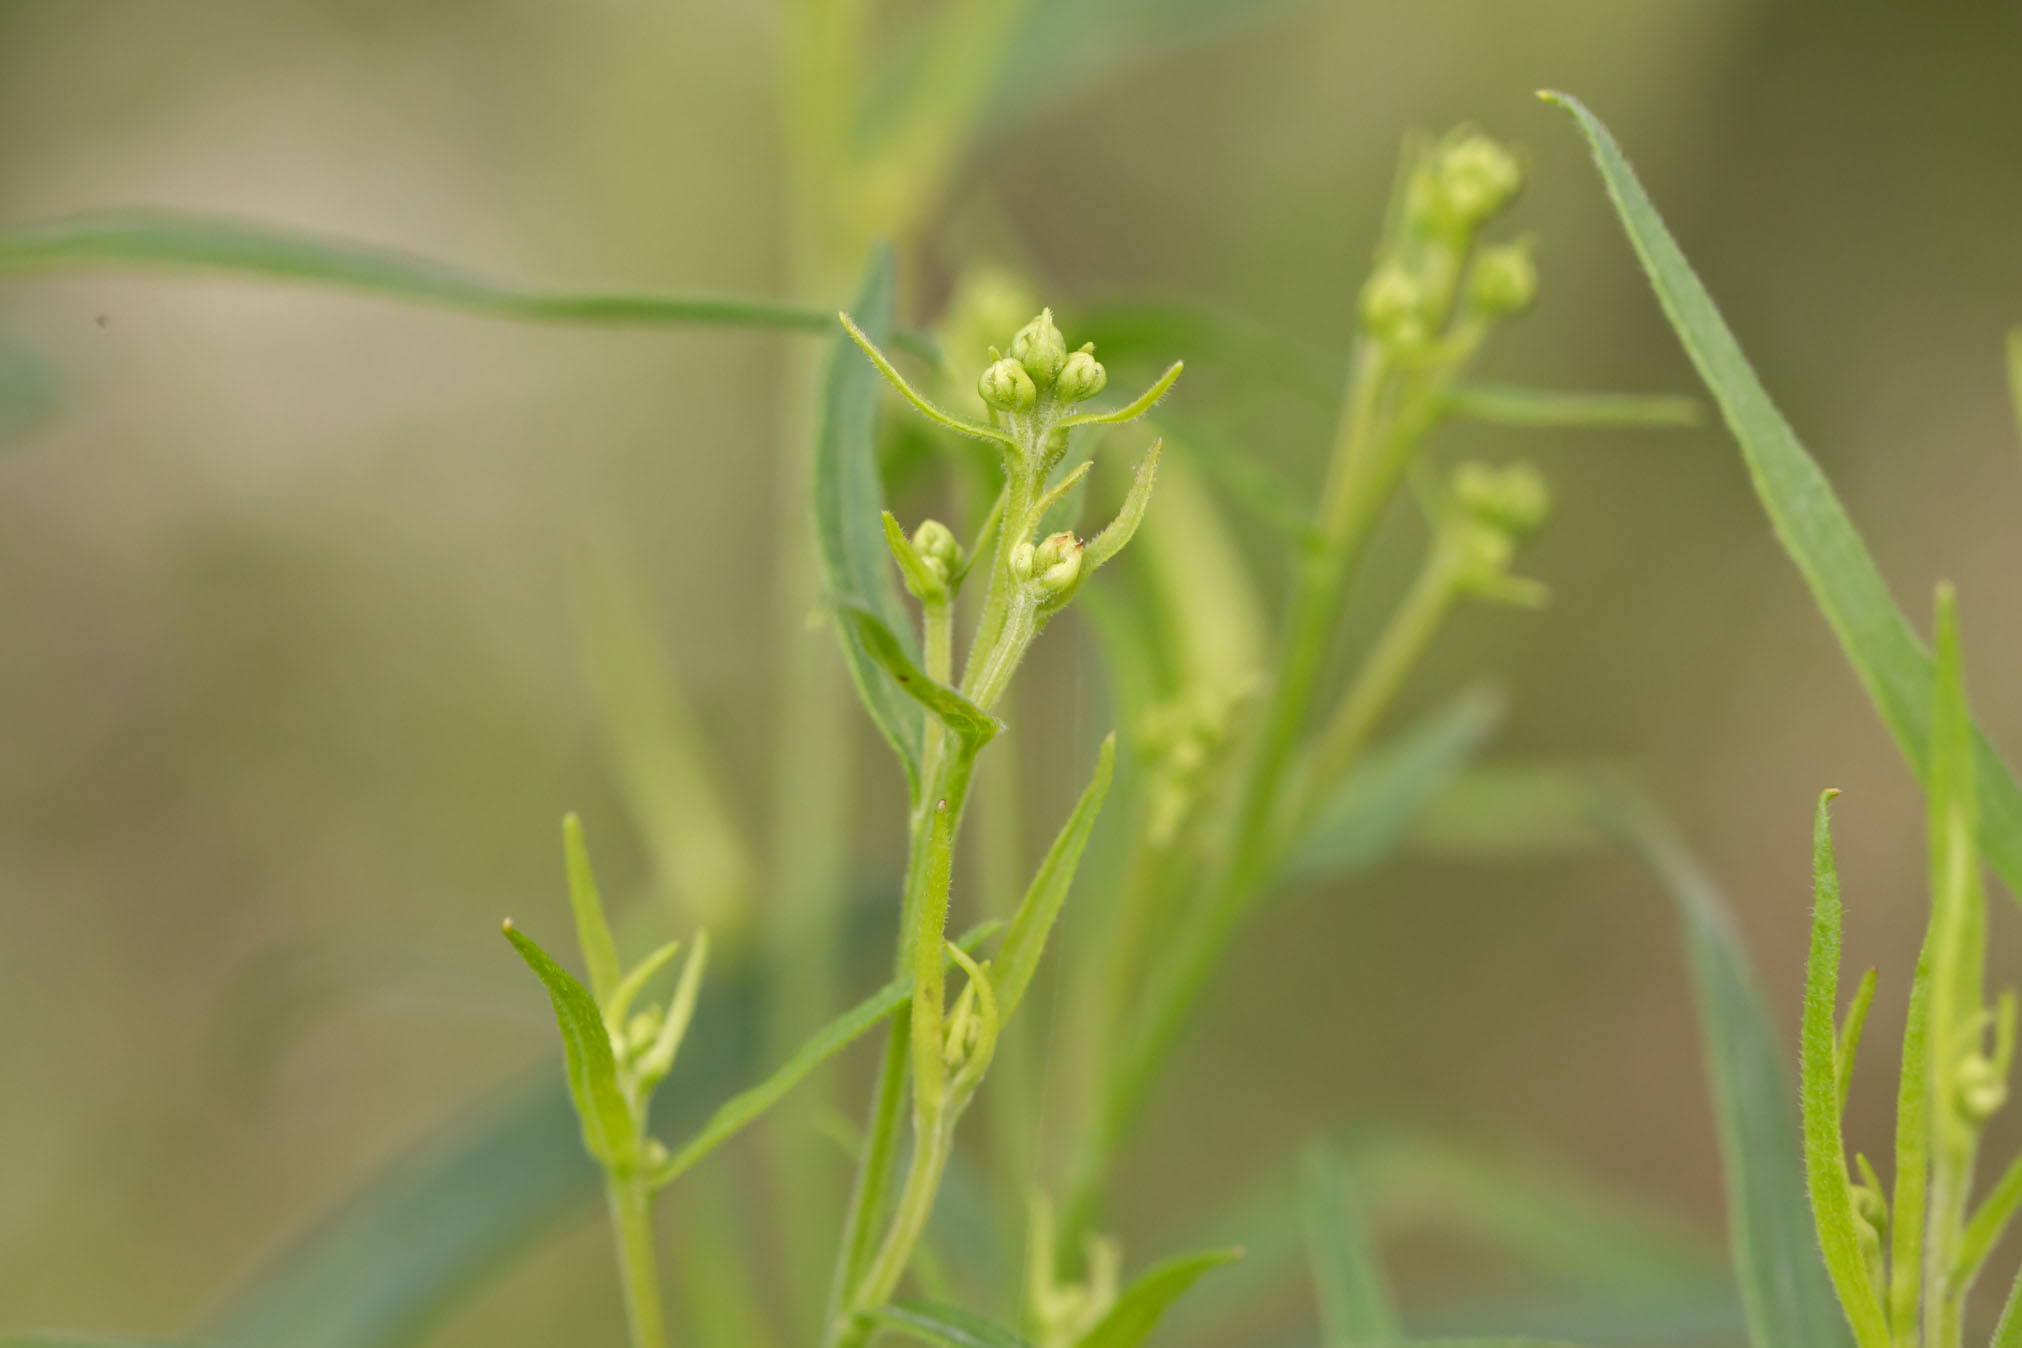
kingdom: Plantae
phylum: Tracheophyta
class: Magnoliopsida
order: Asterales
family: Asteraceae
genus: Euthamia
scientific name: Euthamia graminifolia
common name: Common goldentop
